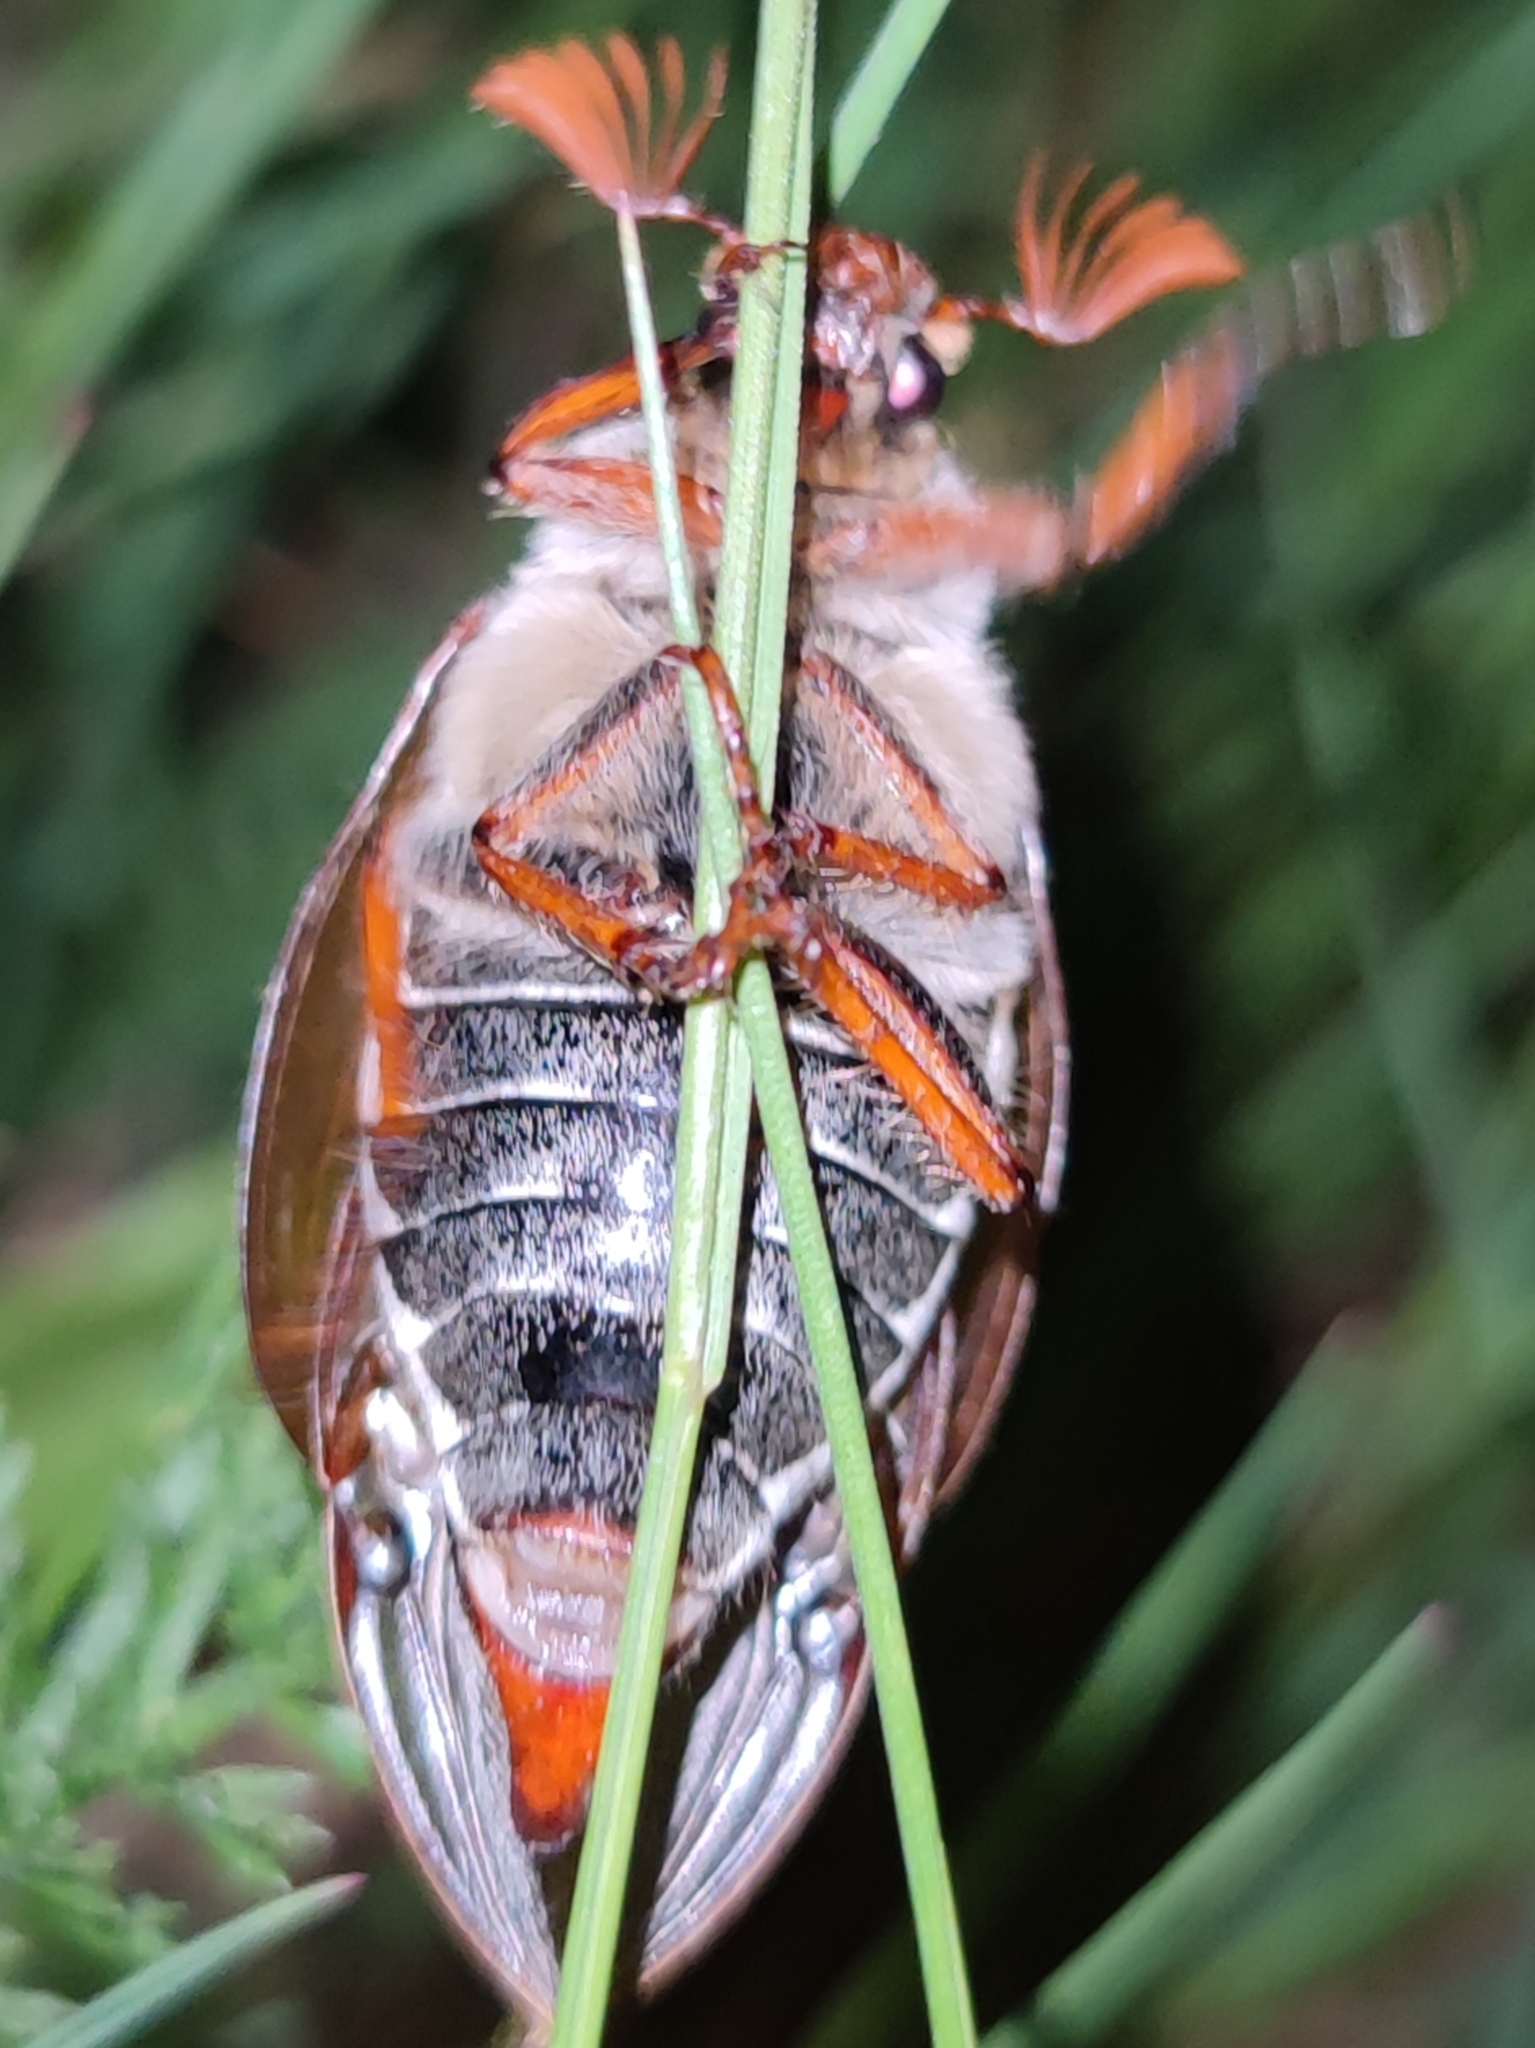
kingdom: Animalia
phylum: Arthropoda
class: Insecta
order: Coleoptera
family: Scarabaeidae
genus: Melolontha
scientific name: Melolontha melolontha
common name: Cockchafer maybeetle
